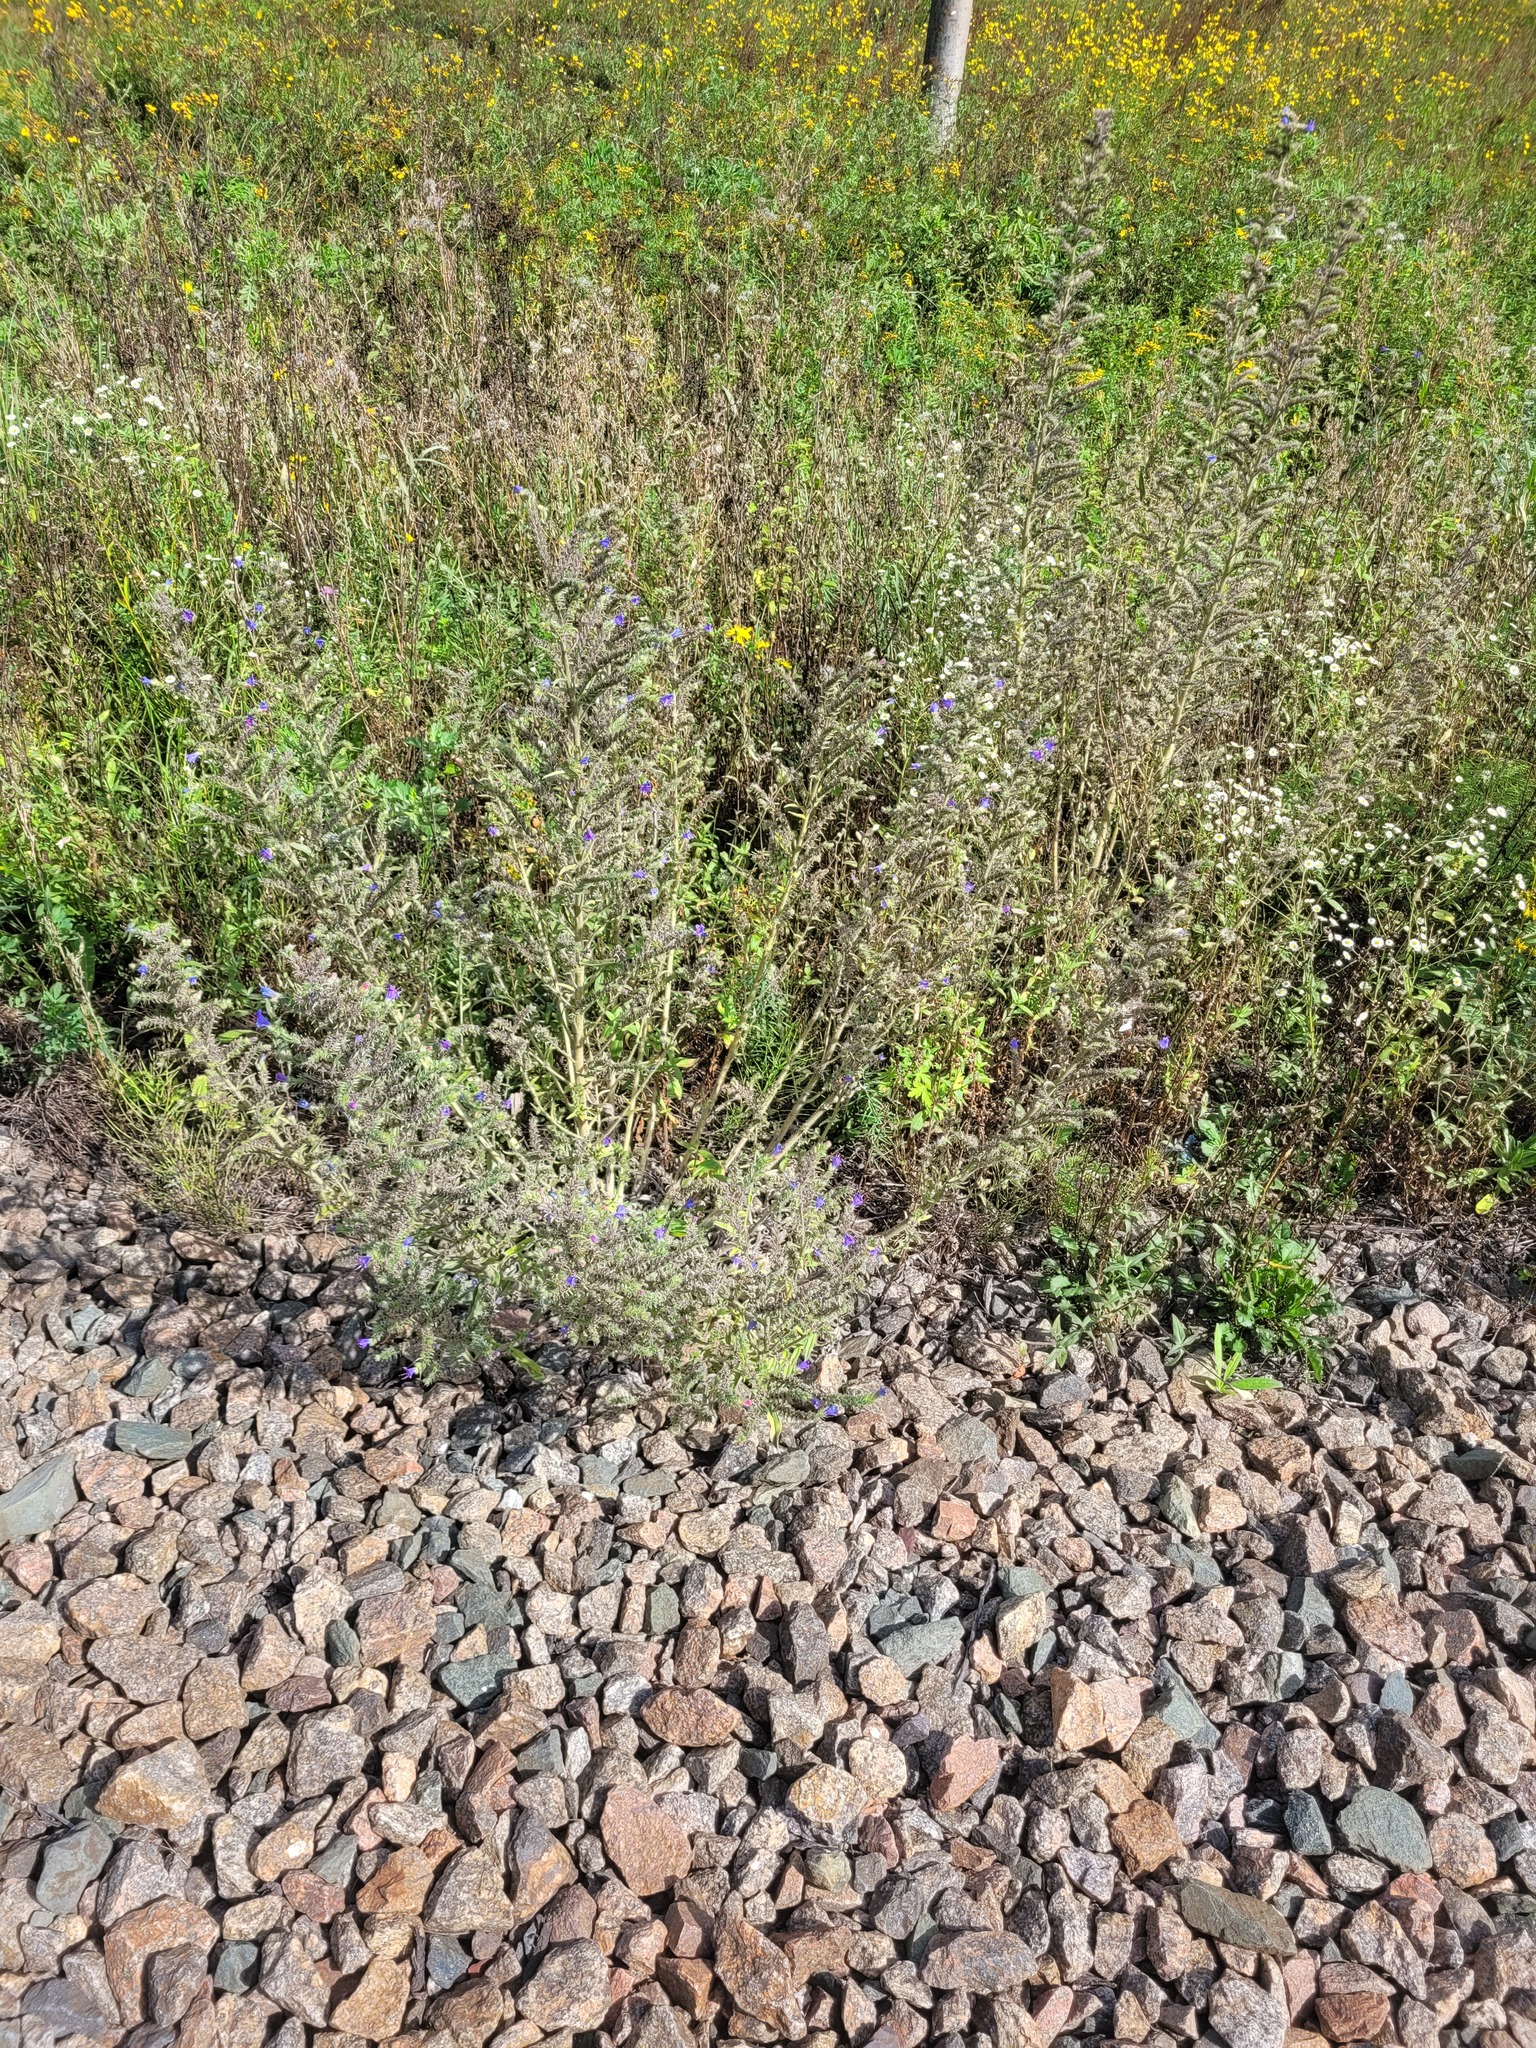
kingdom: Plantae
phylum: Tracheophyta
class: Magnoliopsida
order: Boraginales
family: Boraginaceae
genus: Echium
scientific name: Echium vulgare
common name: Common viper's bugloss
